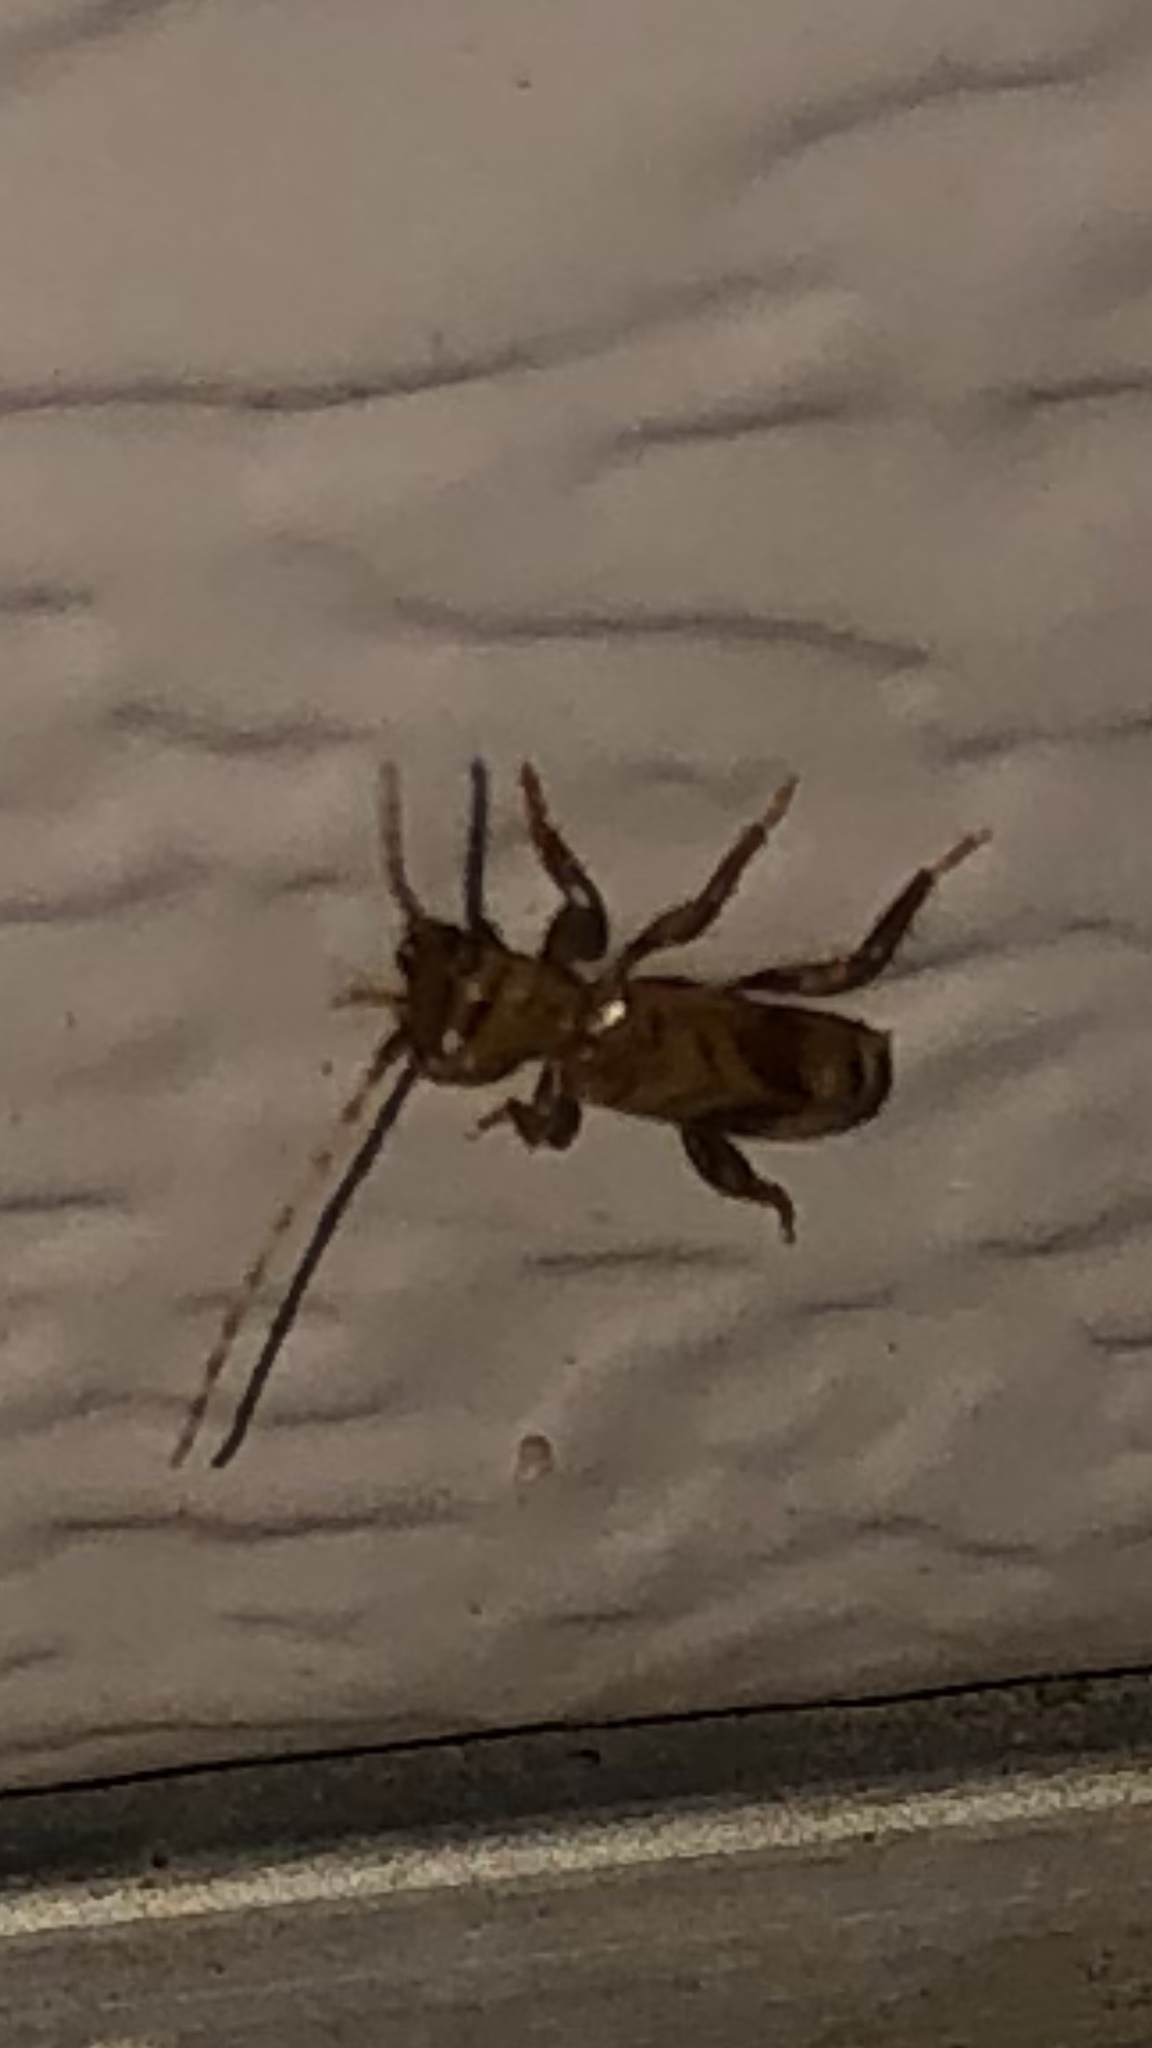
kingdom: Animalia
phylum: Arthropoda
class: Insecta
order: Coleoptera
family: Cerambycidae
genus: Obrium
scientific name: Obrium maculatum
